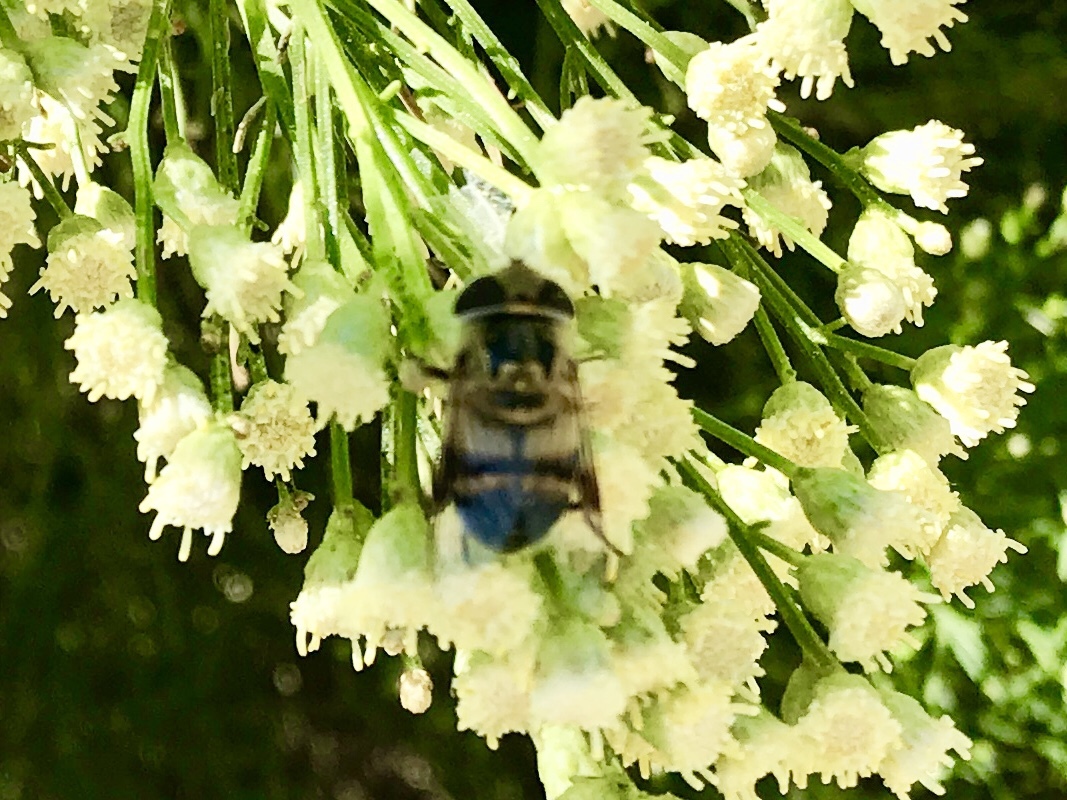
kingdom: Animalia
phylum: Arthropoda
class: Insecta
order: Diptera
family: Syrphidae
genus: Copestylum
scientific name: Copestylum apiciferum
